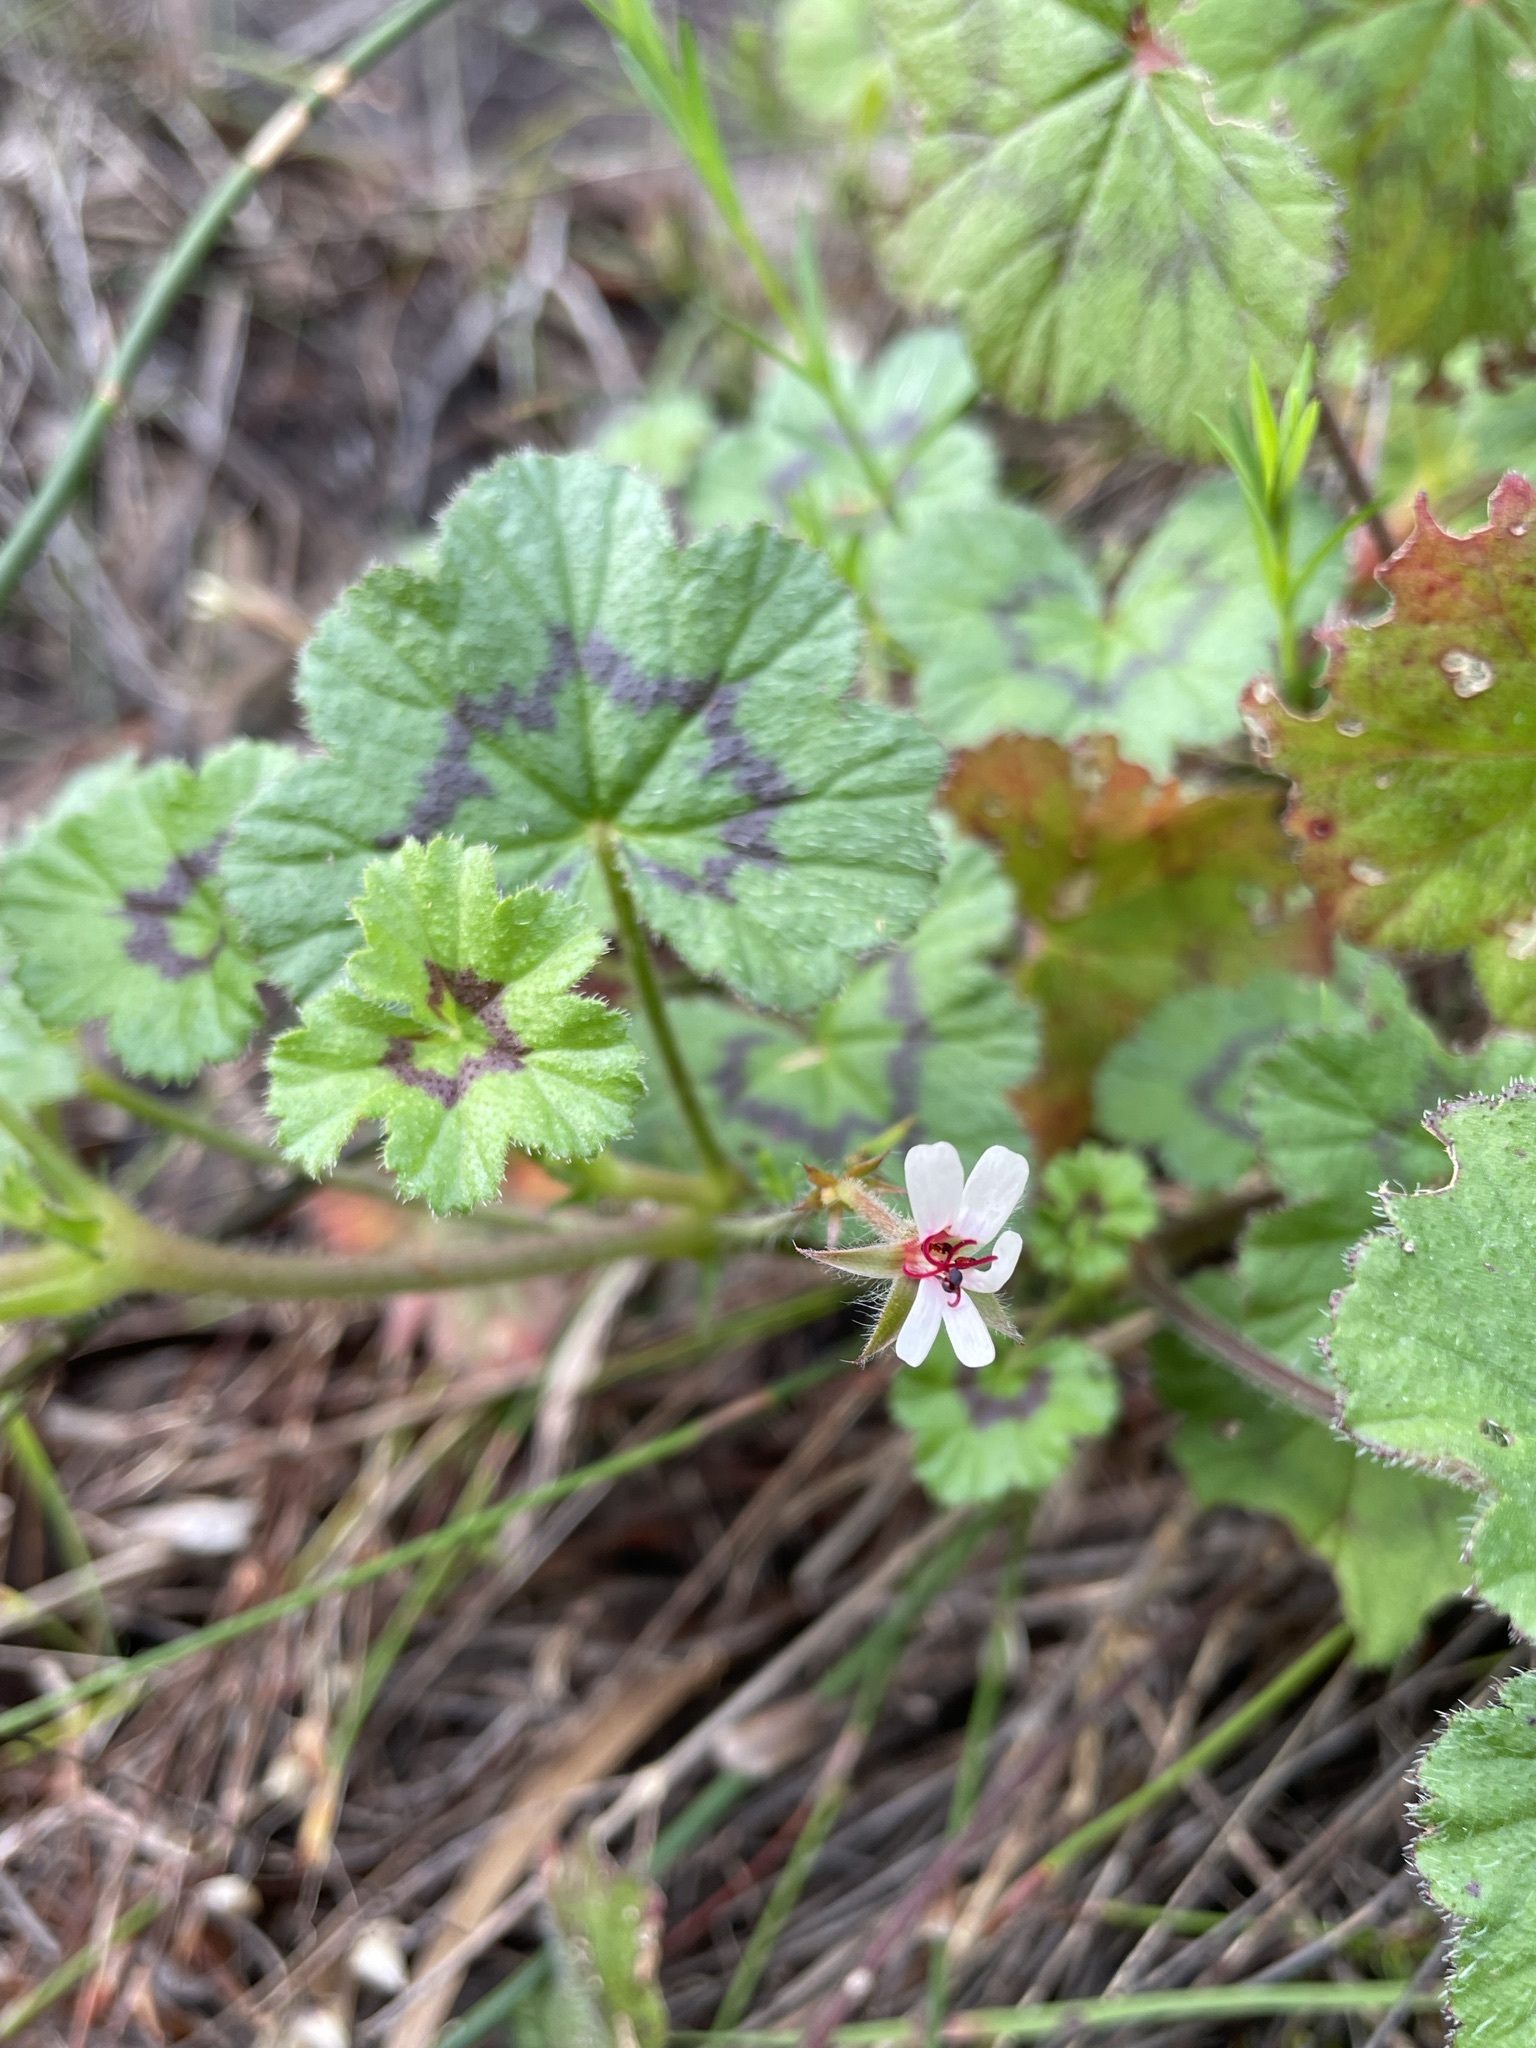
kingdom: Plantae
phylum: Tracheophyta
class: Magnoliopsida
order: Geraniales
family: Geraniaceae
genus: Pelargonium
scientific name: Pelargonium elongatum
